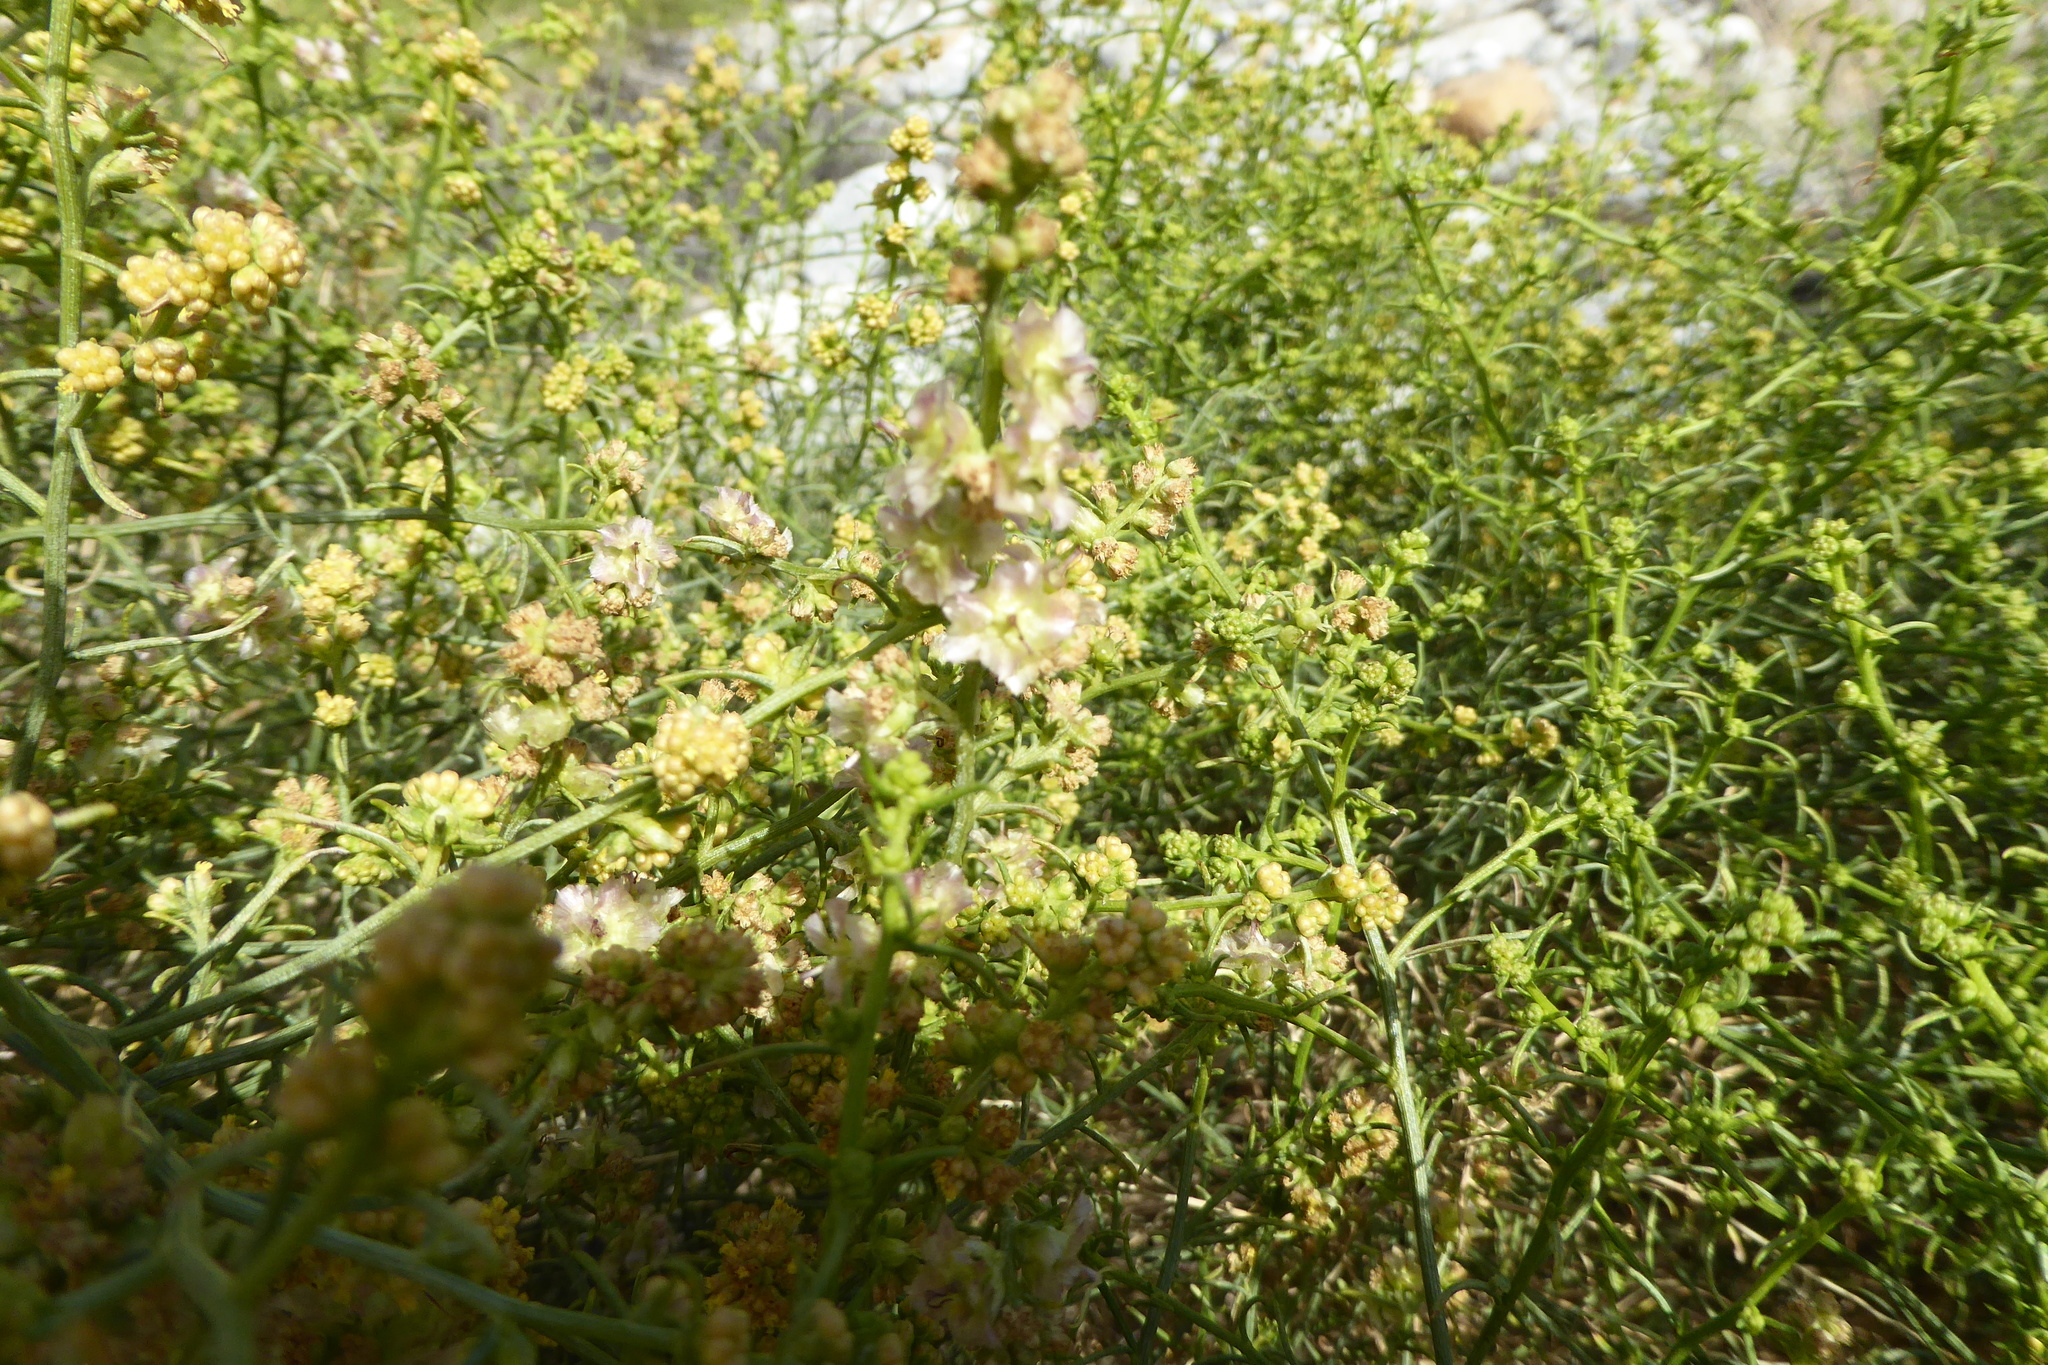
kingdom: Plantae
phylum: Tracheophyta
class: Magnoliopsida
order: Asterales
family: Asteraceae
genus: Ambrosia
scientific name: Ambrosia salsola
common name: Burrobrush
